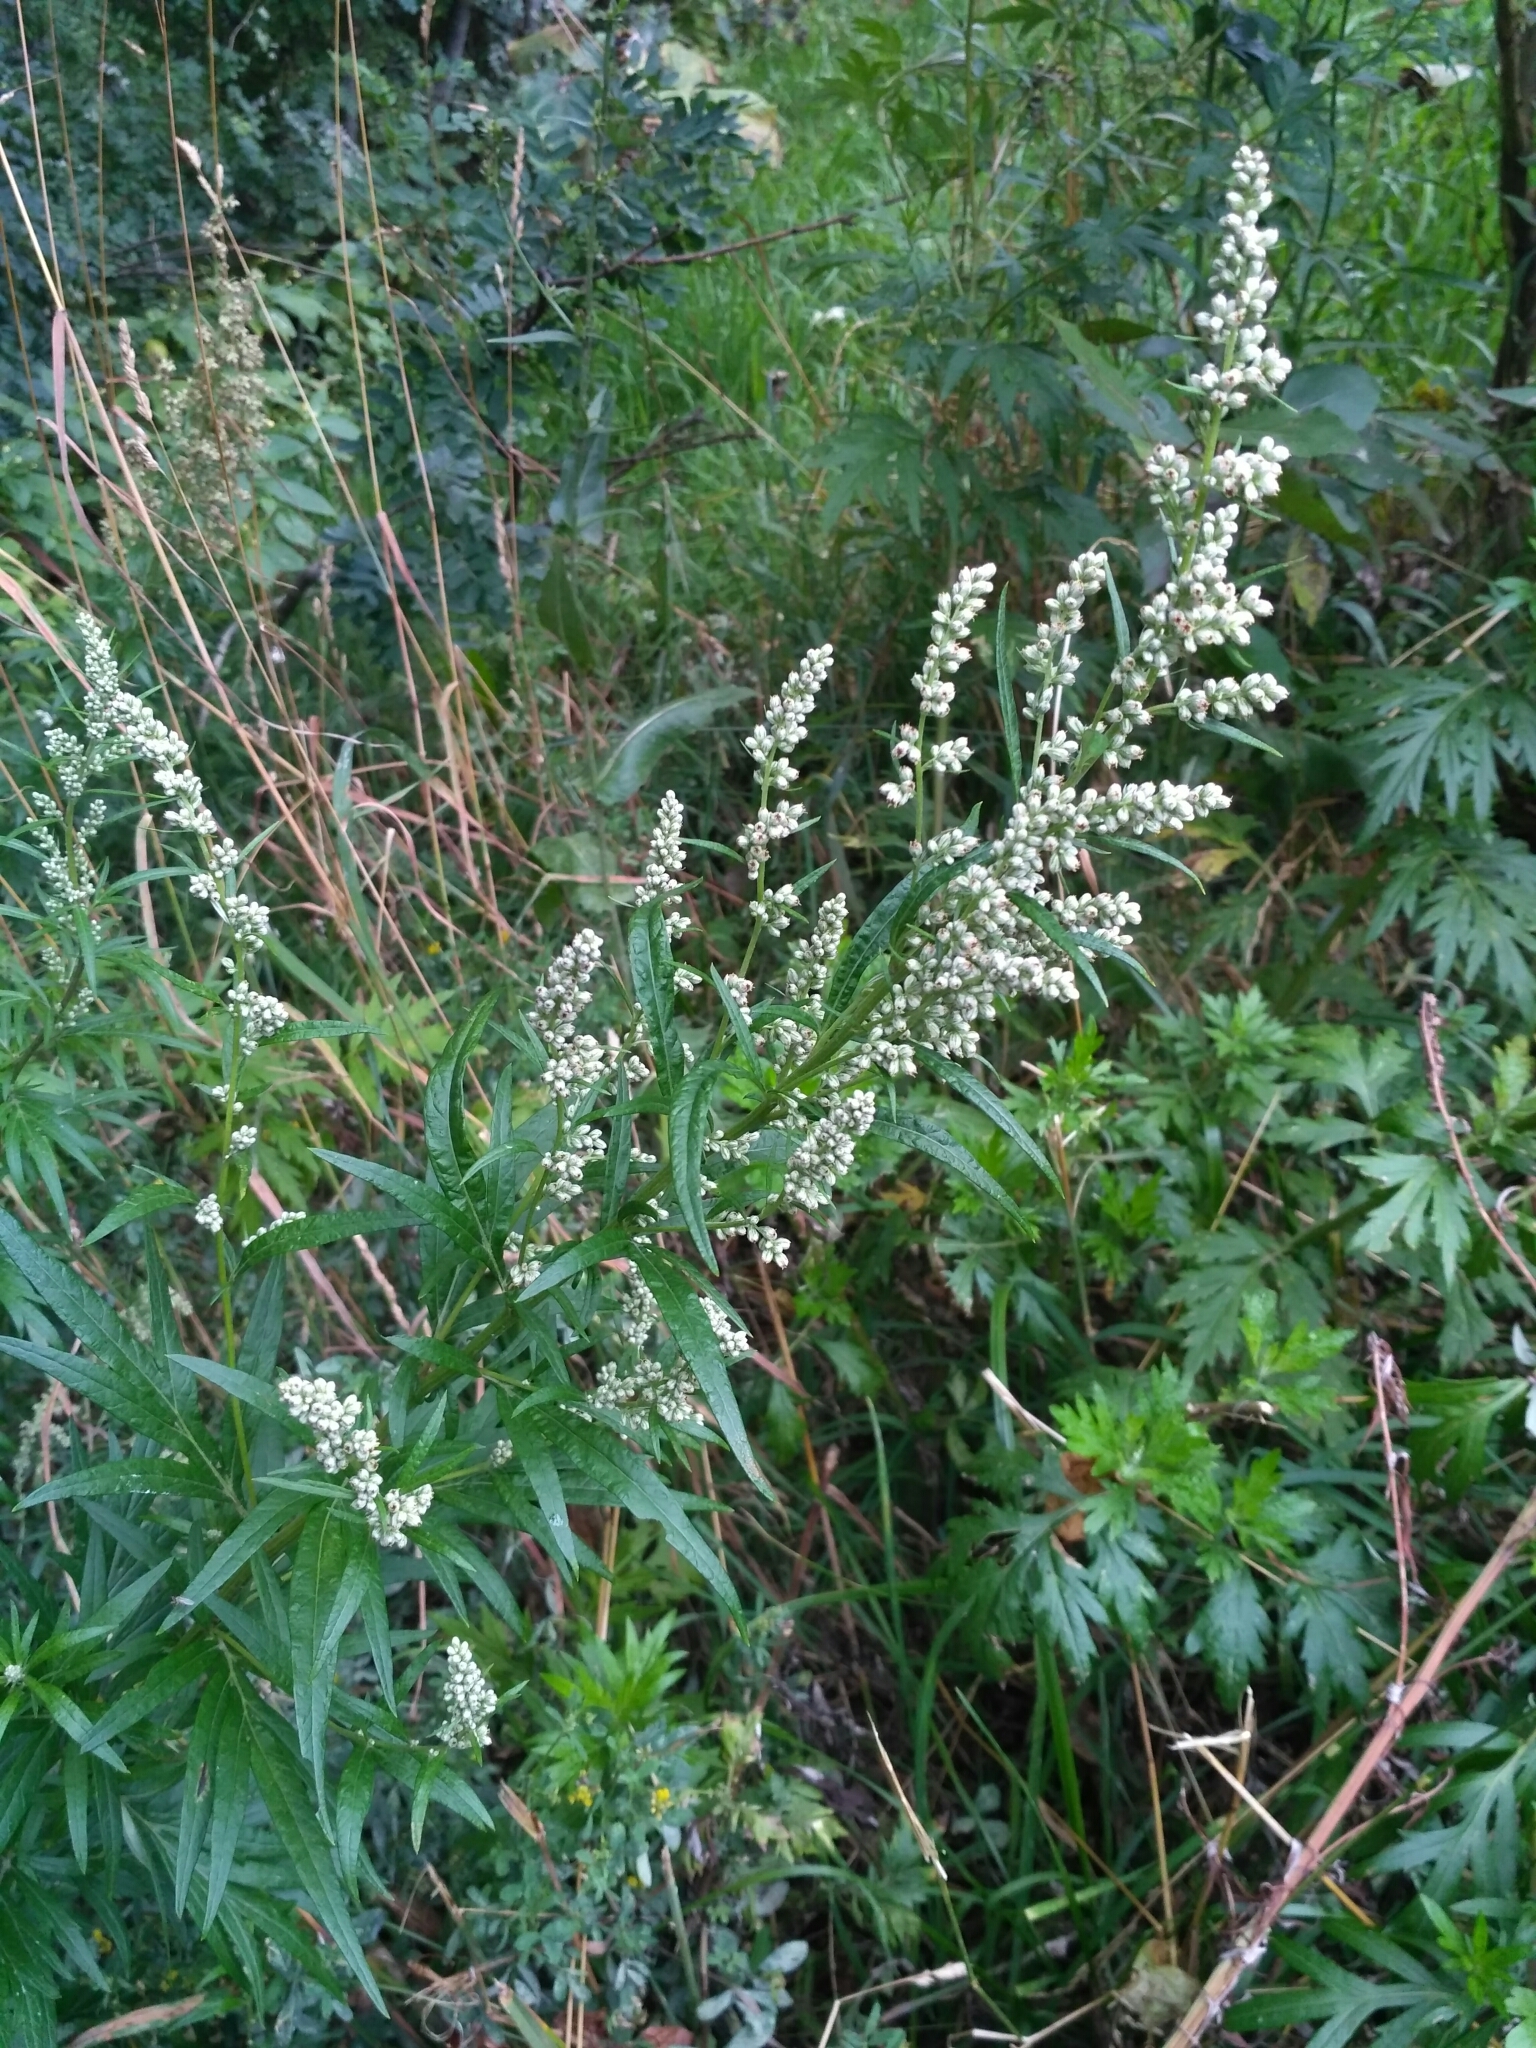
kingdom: Plantae
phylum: Tracheophyta
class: Magnoliopsida
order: Asterales
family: Asteraceae
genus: Artemisia
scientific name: Artemisia vulgaris
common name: Mugwort
